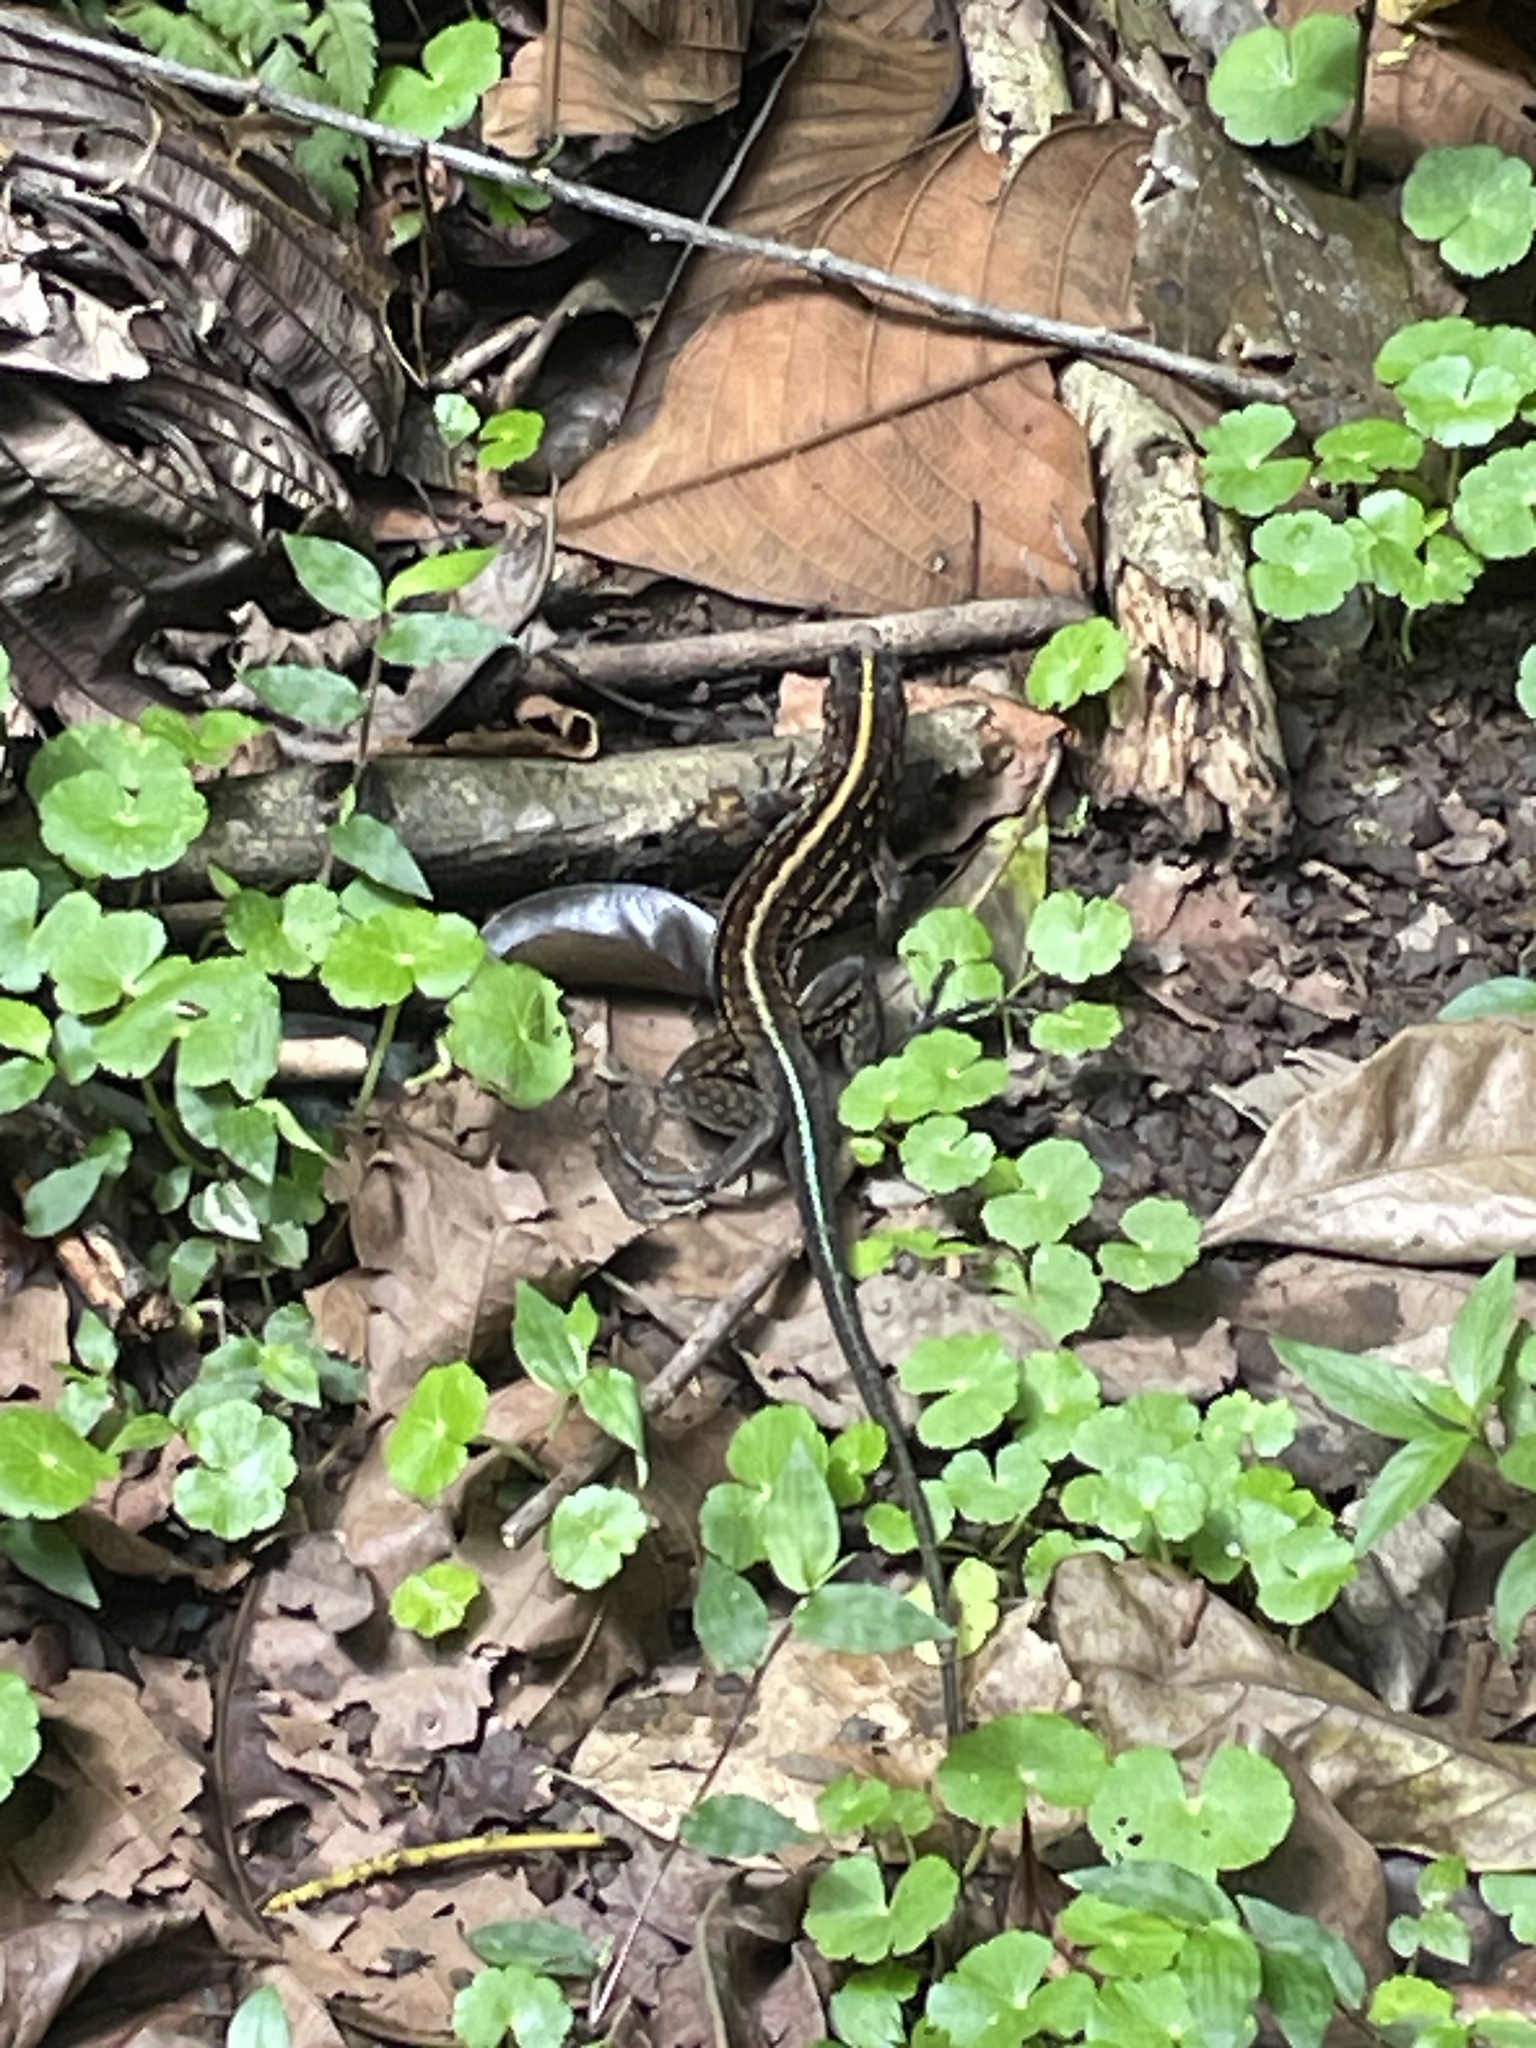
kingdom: Animalia
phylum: Chordata
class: Squamata
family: Teiidae
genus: Holcosus
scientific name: Holcosus festivus
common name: Middle american ameiva
